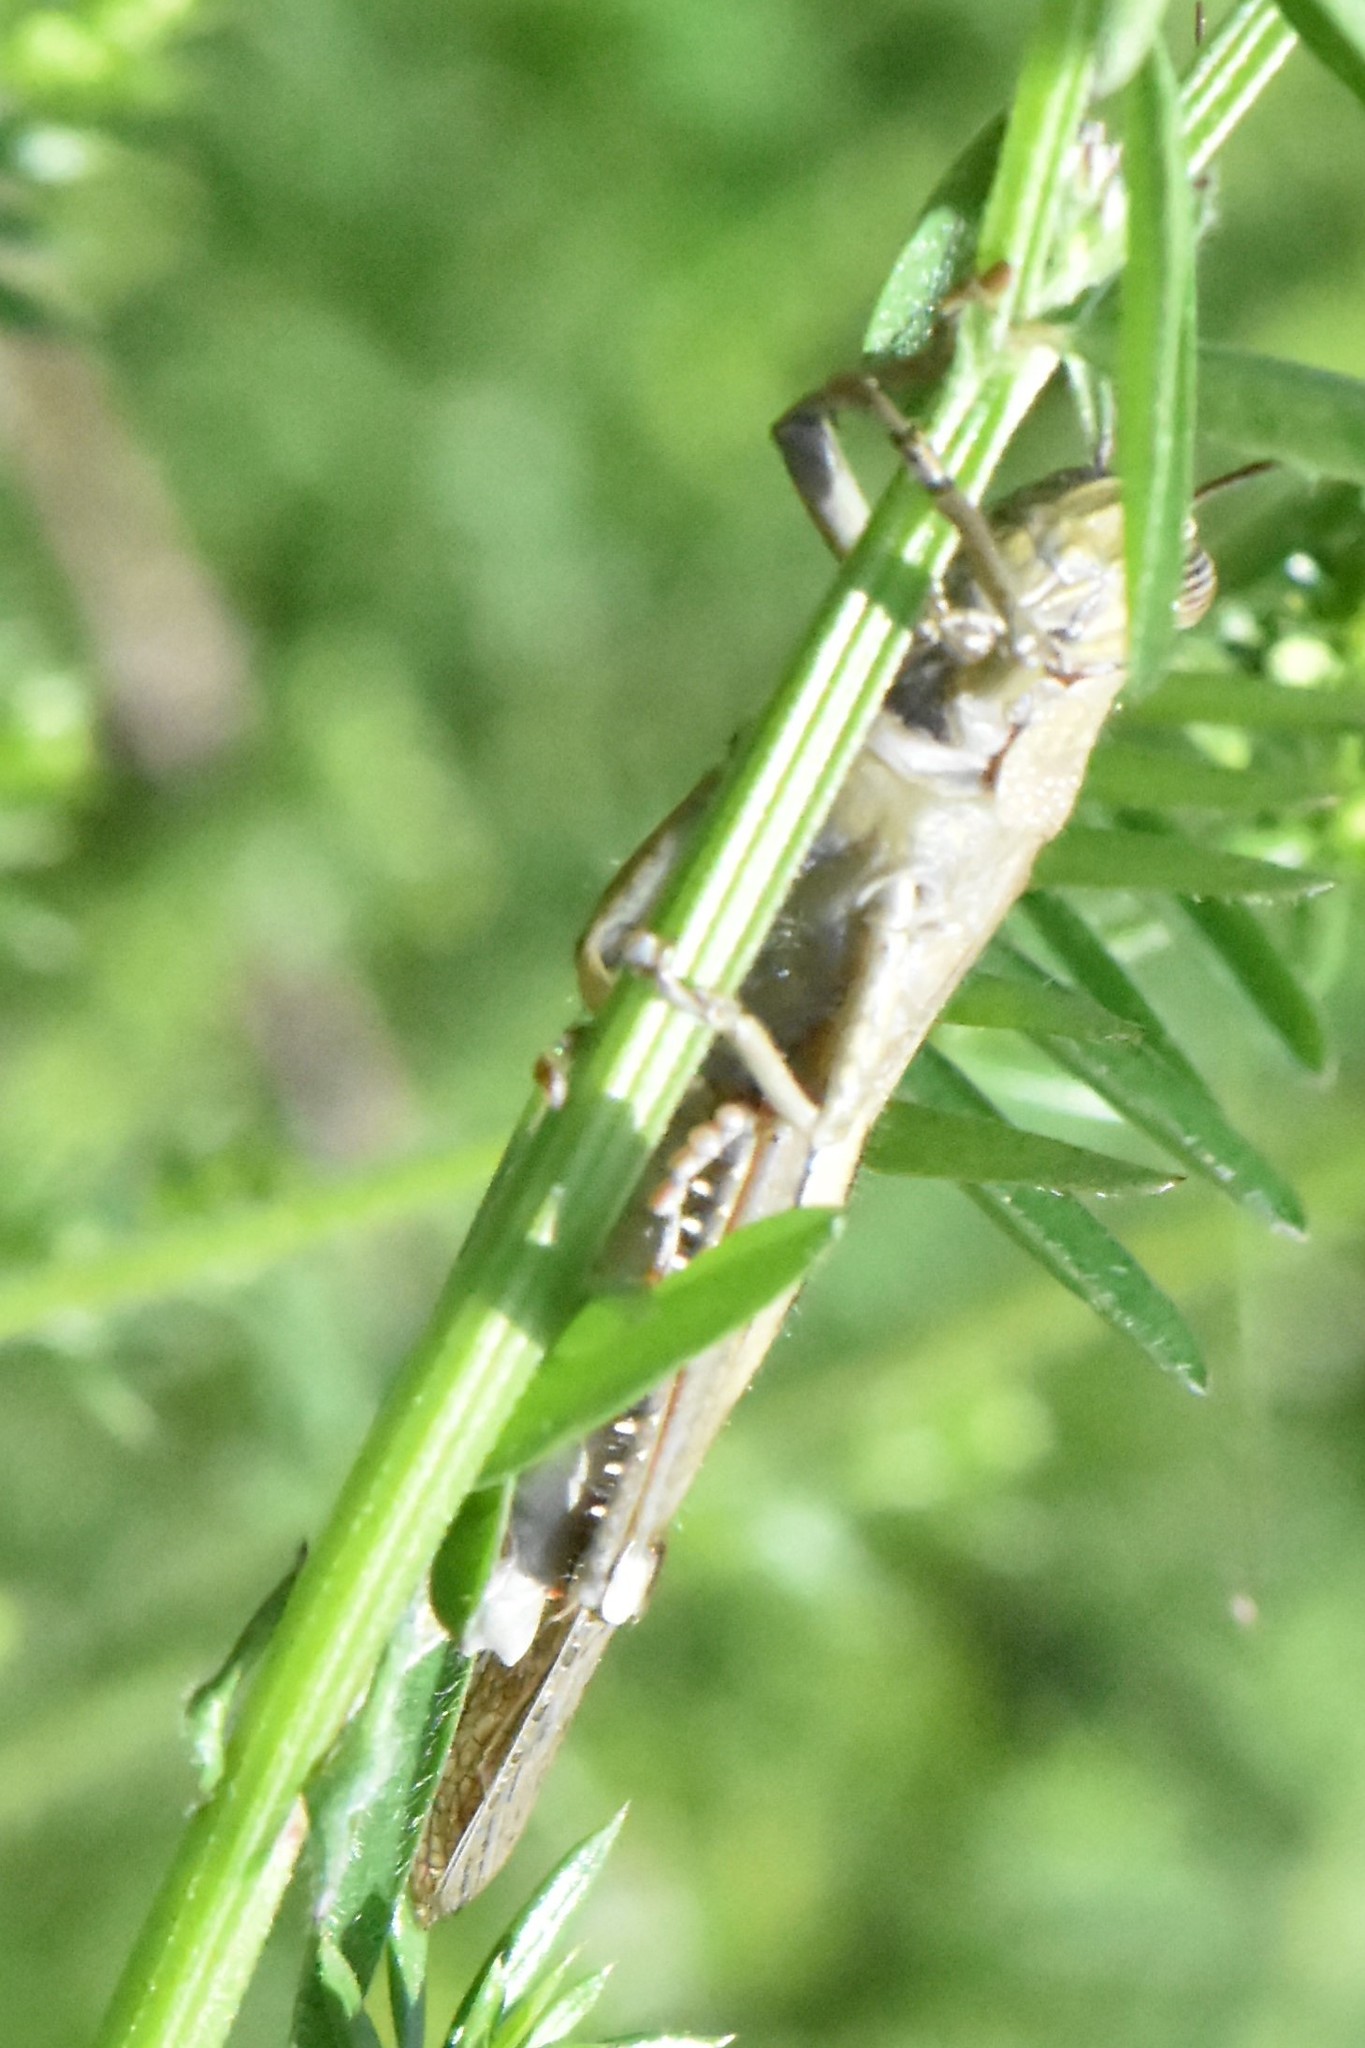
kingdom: Animalia
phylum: Arthropoda
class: Insecta
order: Orthoptera
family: Acrididae
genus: Anacridium
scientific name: Anacridium aegyptium
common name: Egyptian grasshopper
